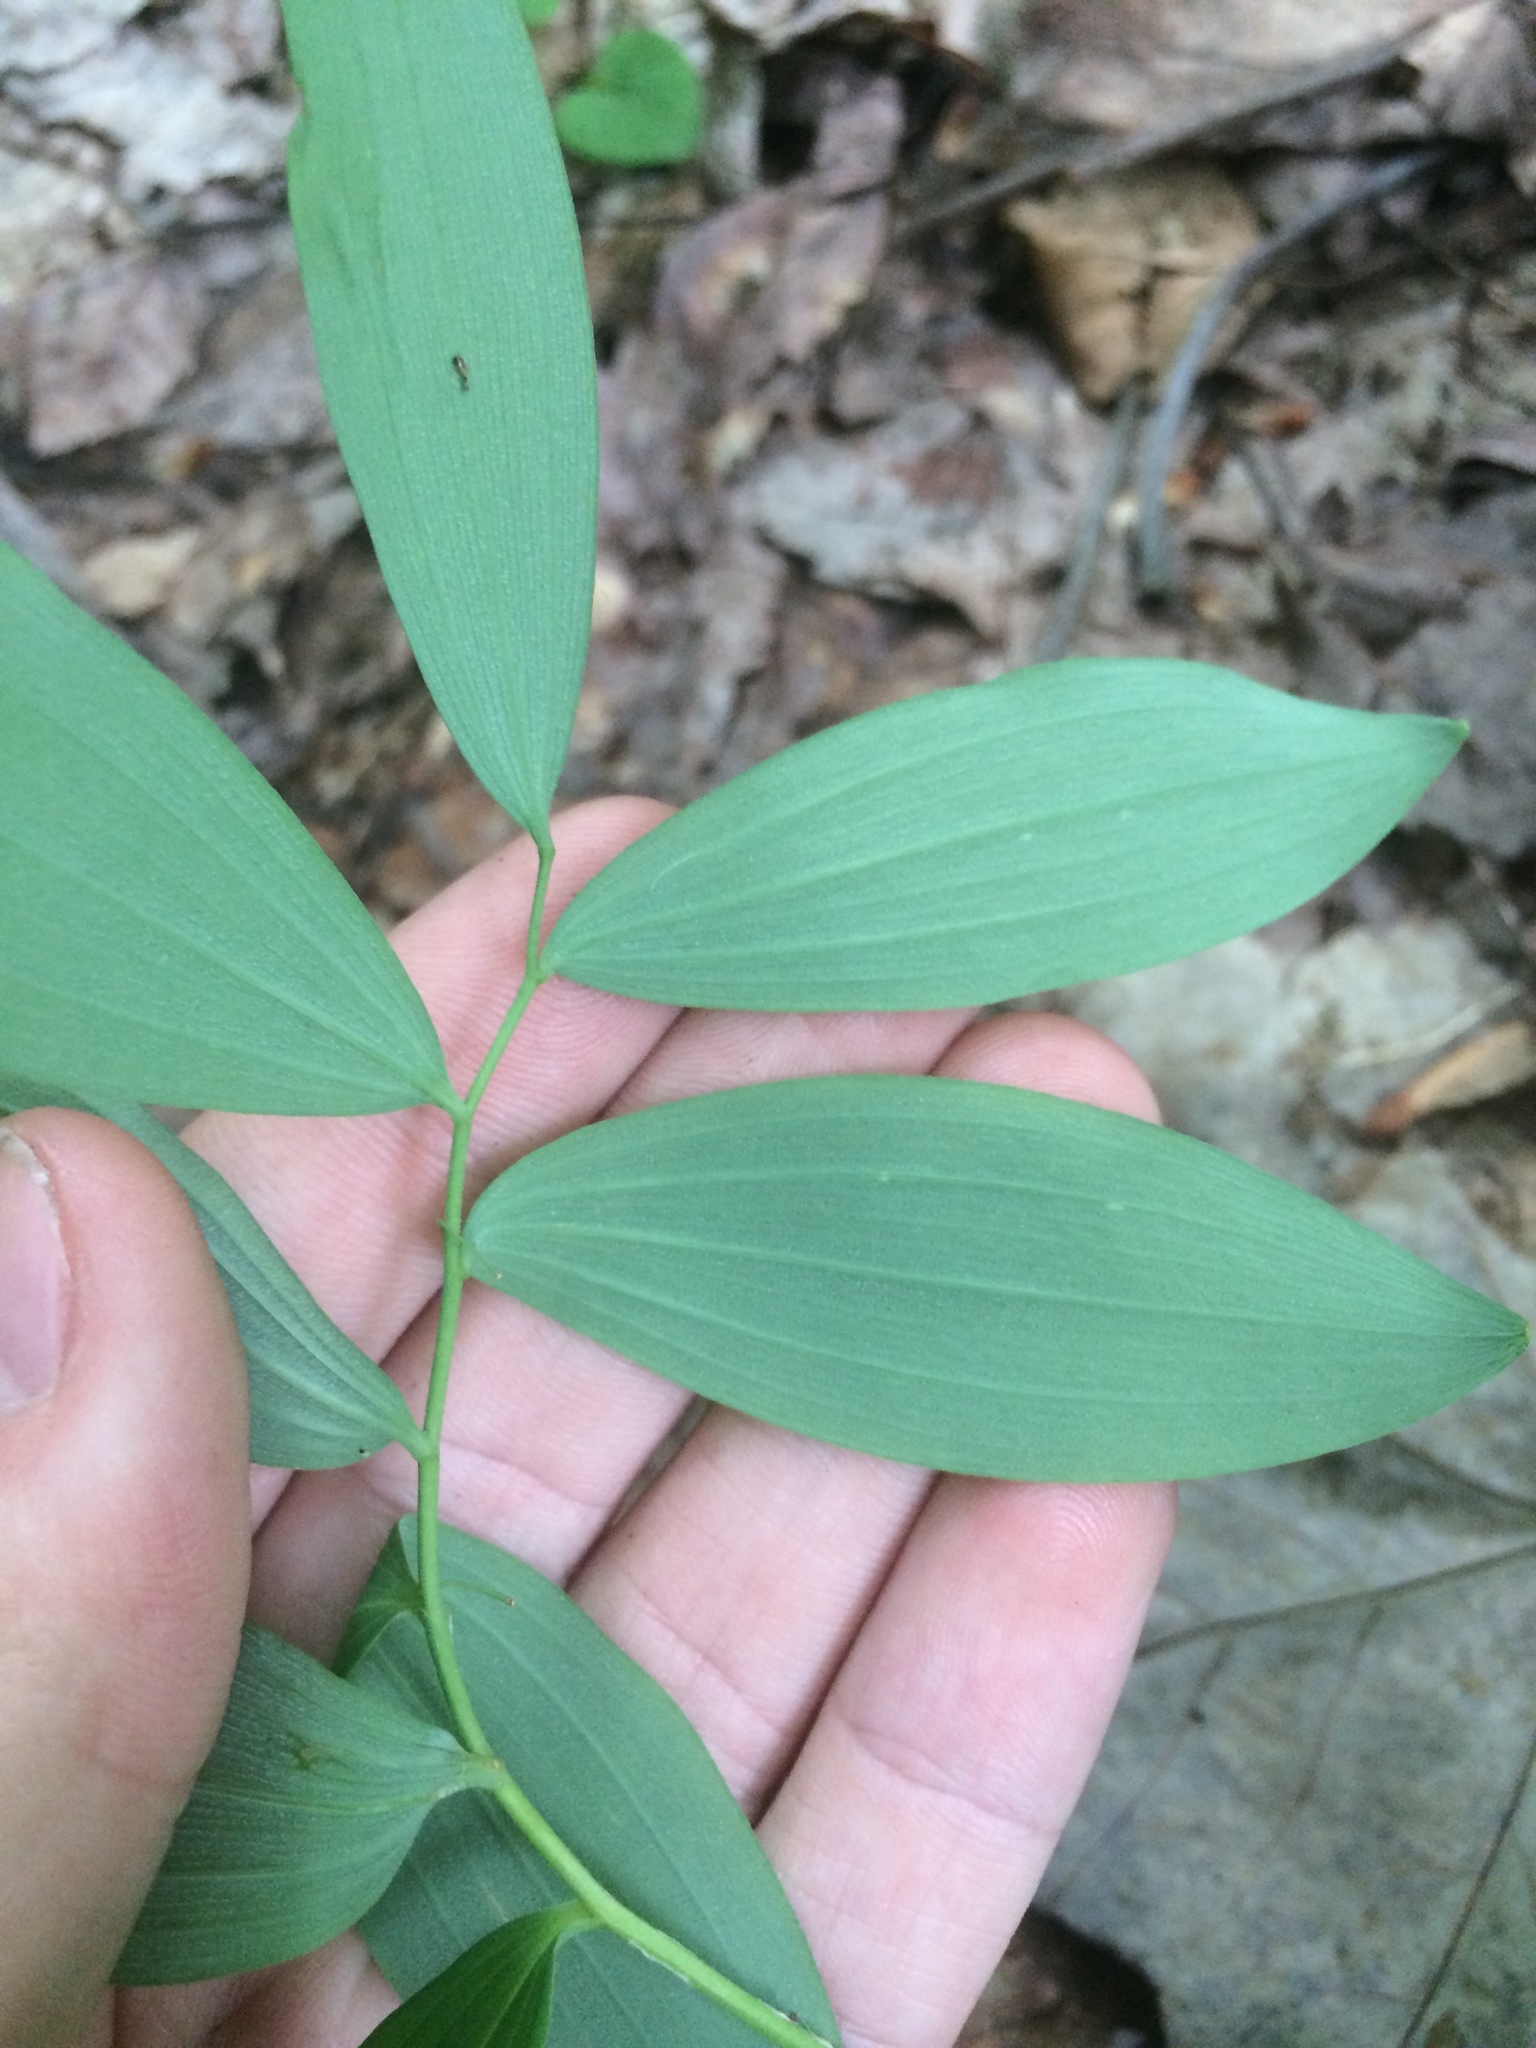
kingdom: Plantae
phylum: Tracheophyta
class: Liliopsida
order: Asparagales
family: Asparagaceae
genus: Polygonatum
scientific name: Polygonatum pubescens
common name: Downy solomon's seal
